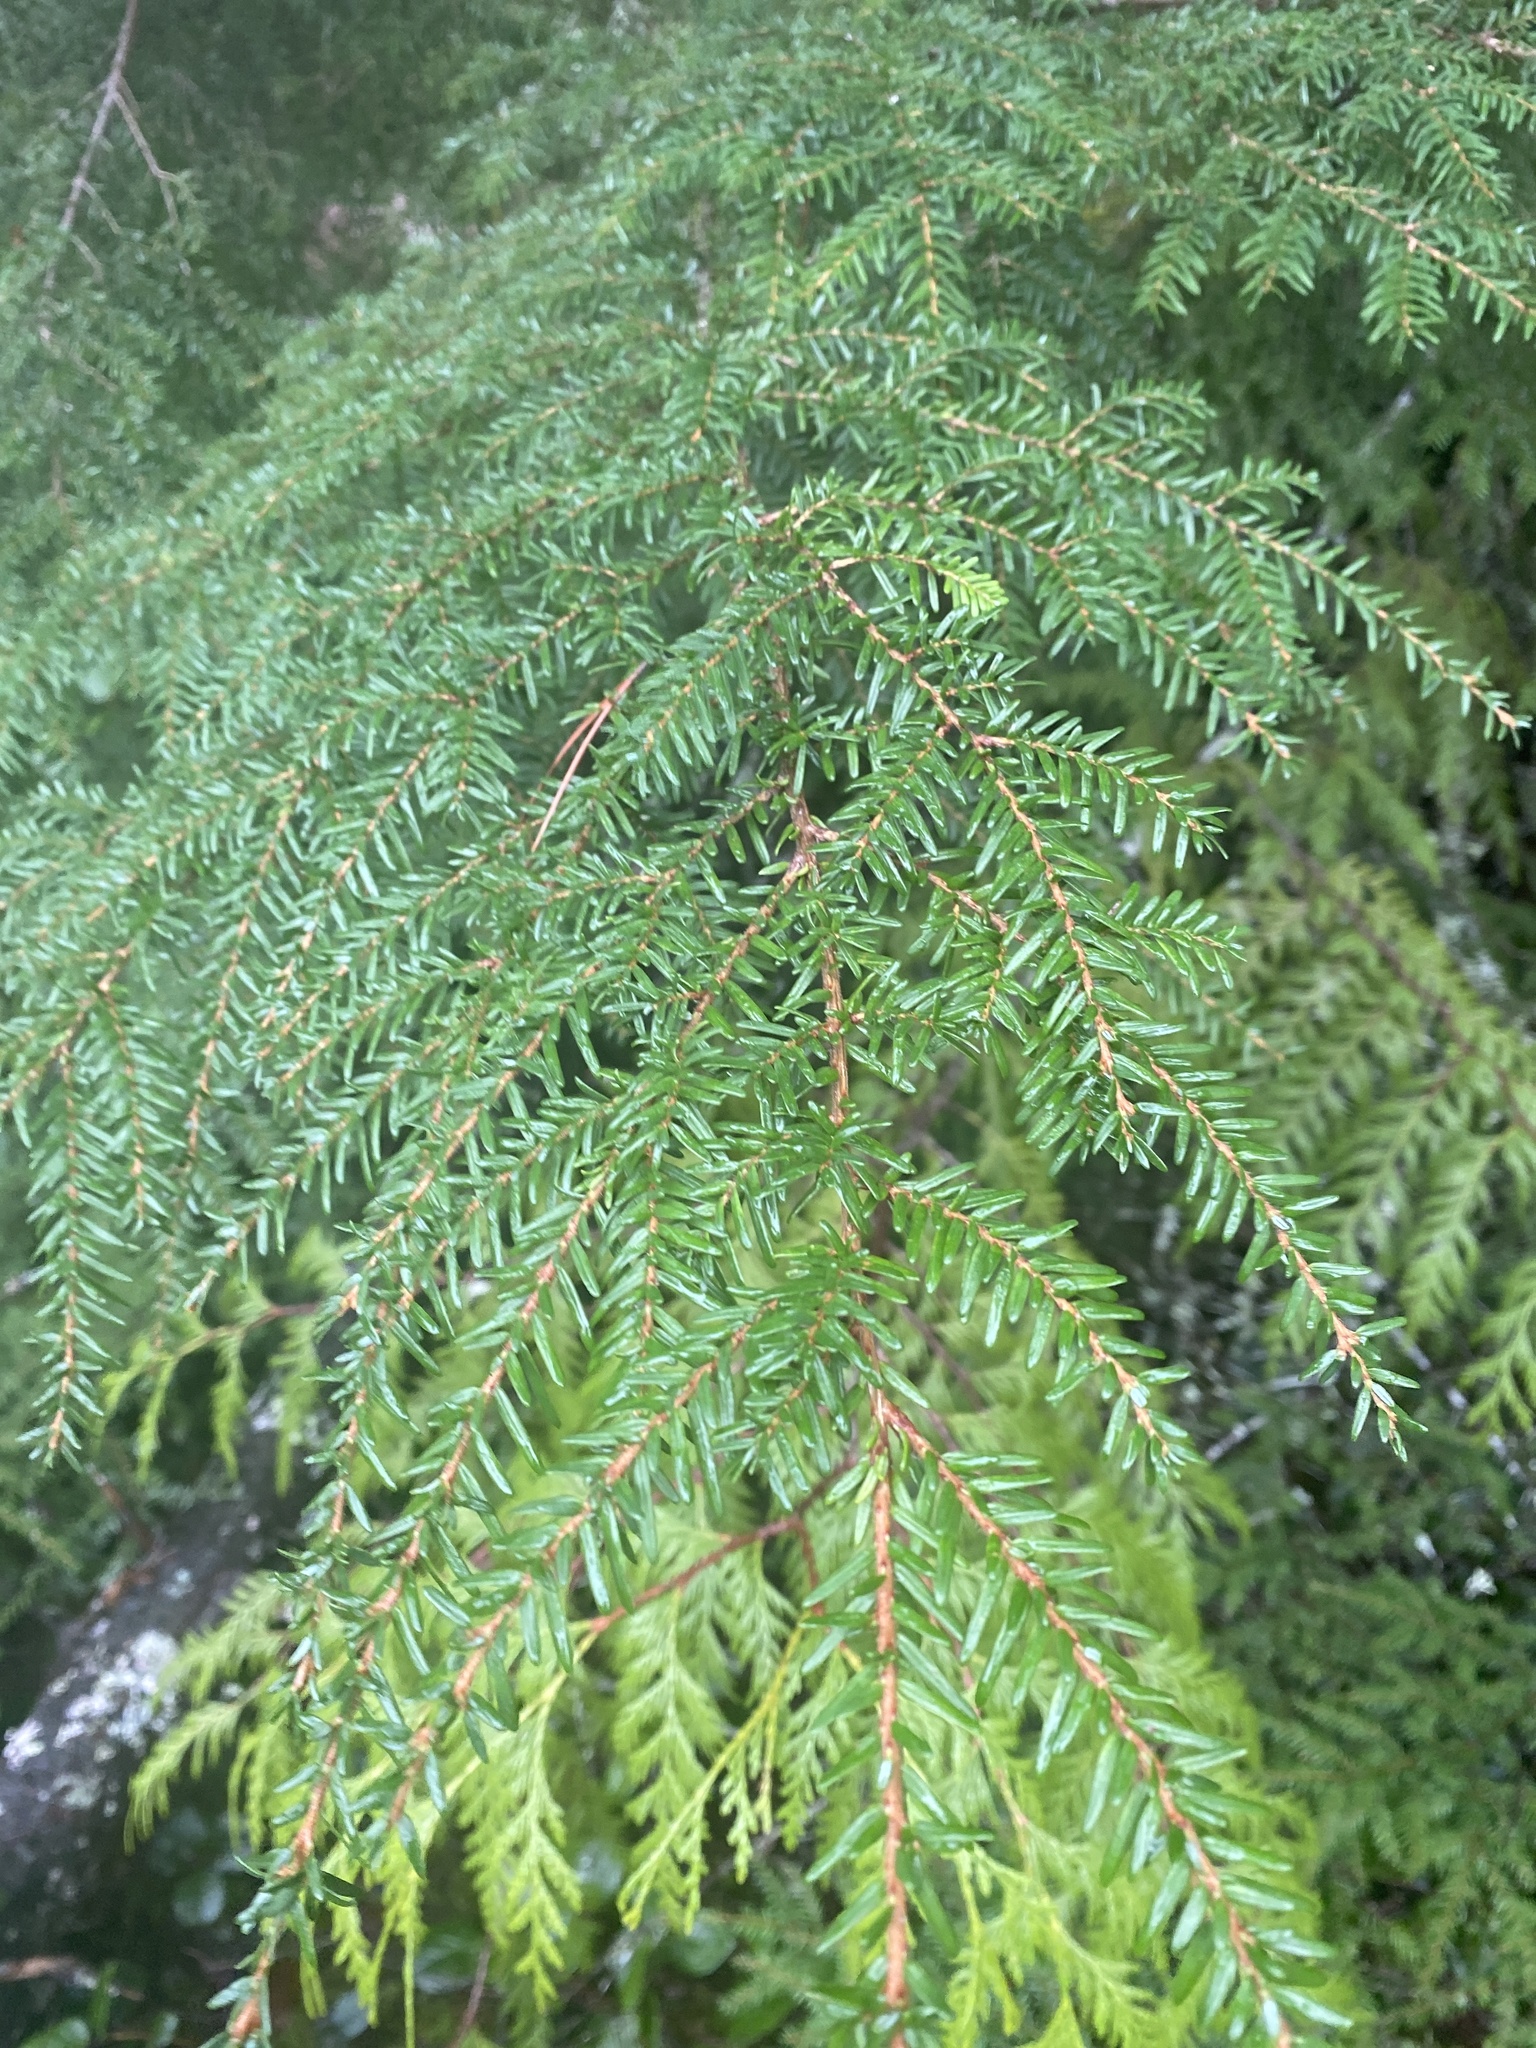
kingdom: Plantae
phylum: Tracheophyta
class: Pinopsida
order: Pinales
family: Pinaceae
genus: Tsuga
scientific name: Tsuga heterophylla
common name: Western hemlock
